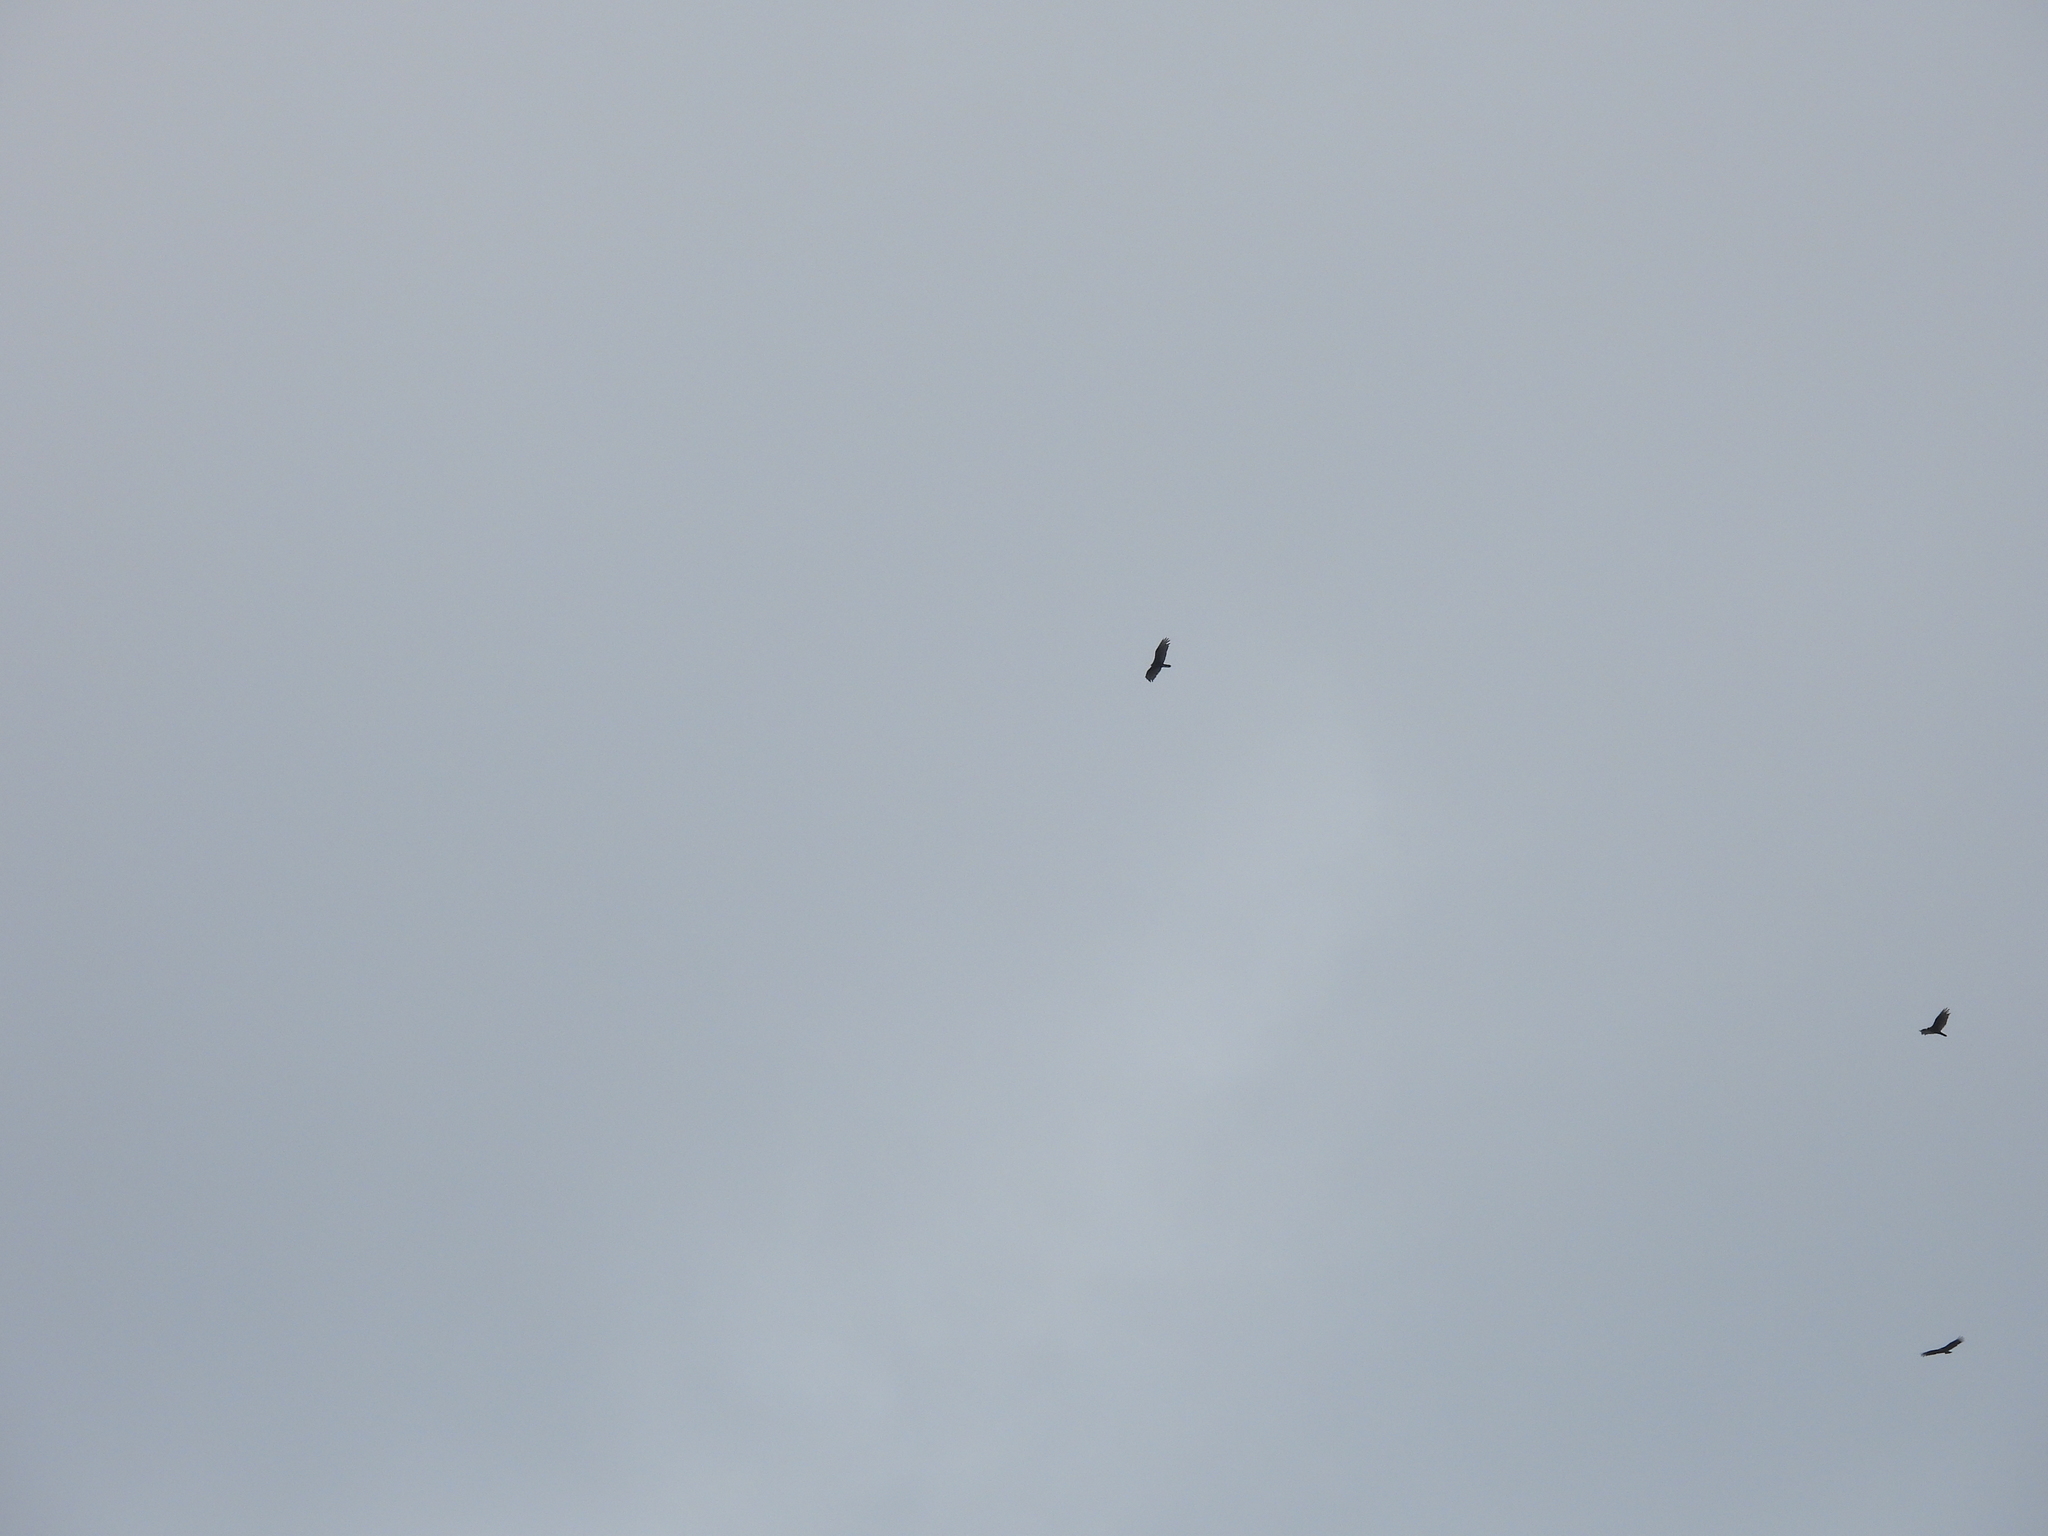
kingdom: Animalia
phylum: Chordata
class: Aves
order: Accipitriformes
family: Cathartidae
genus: Coragyps
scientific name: Coragyps atratus
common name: Black vulture
